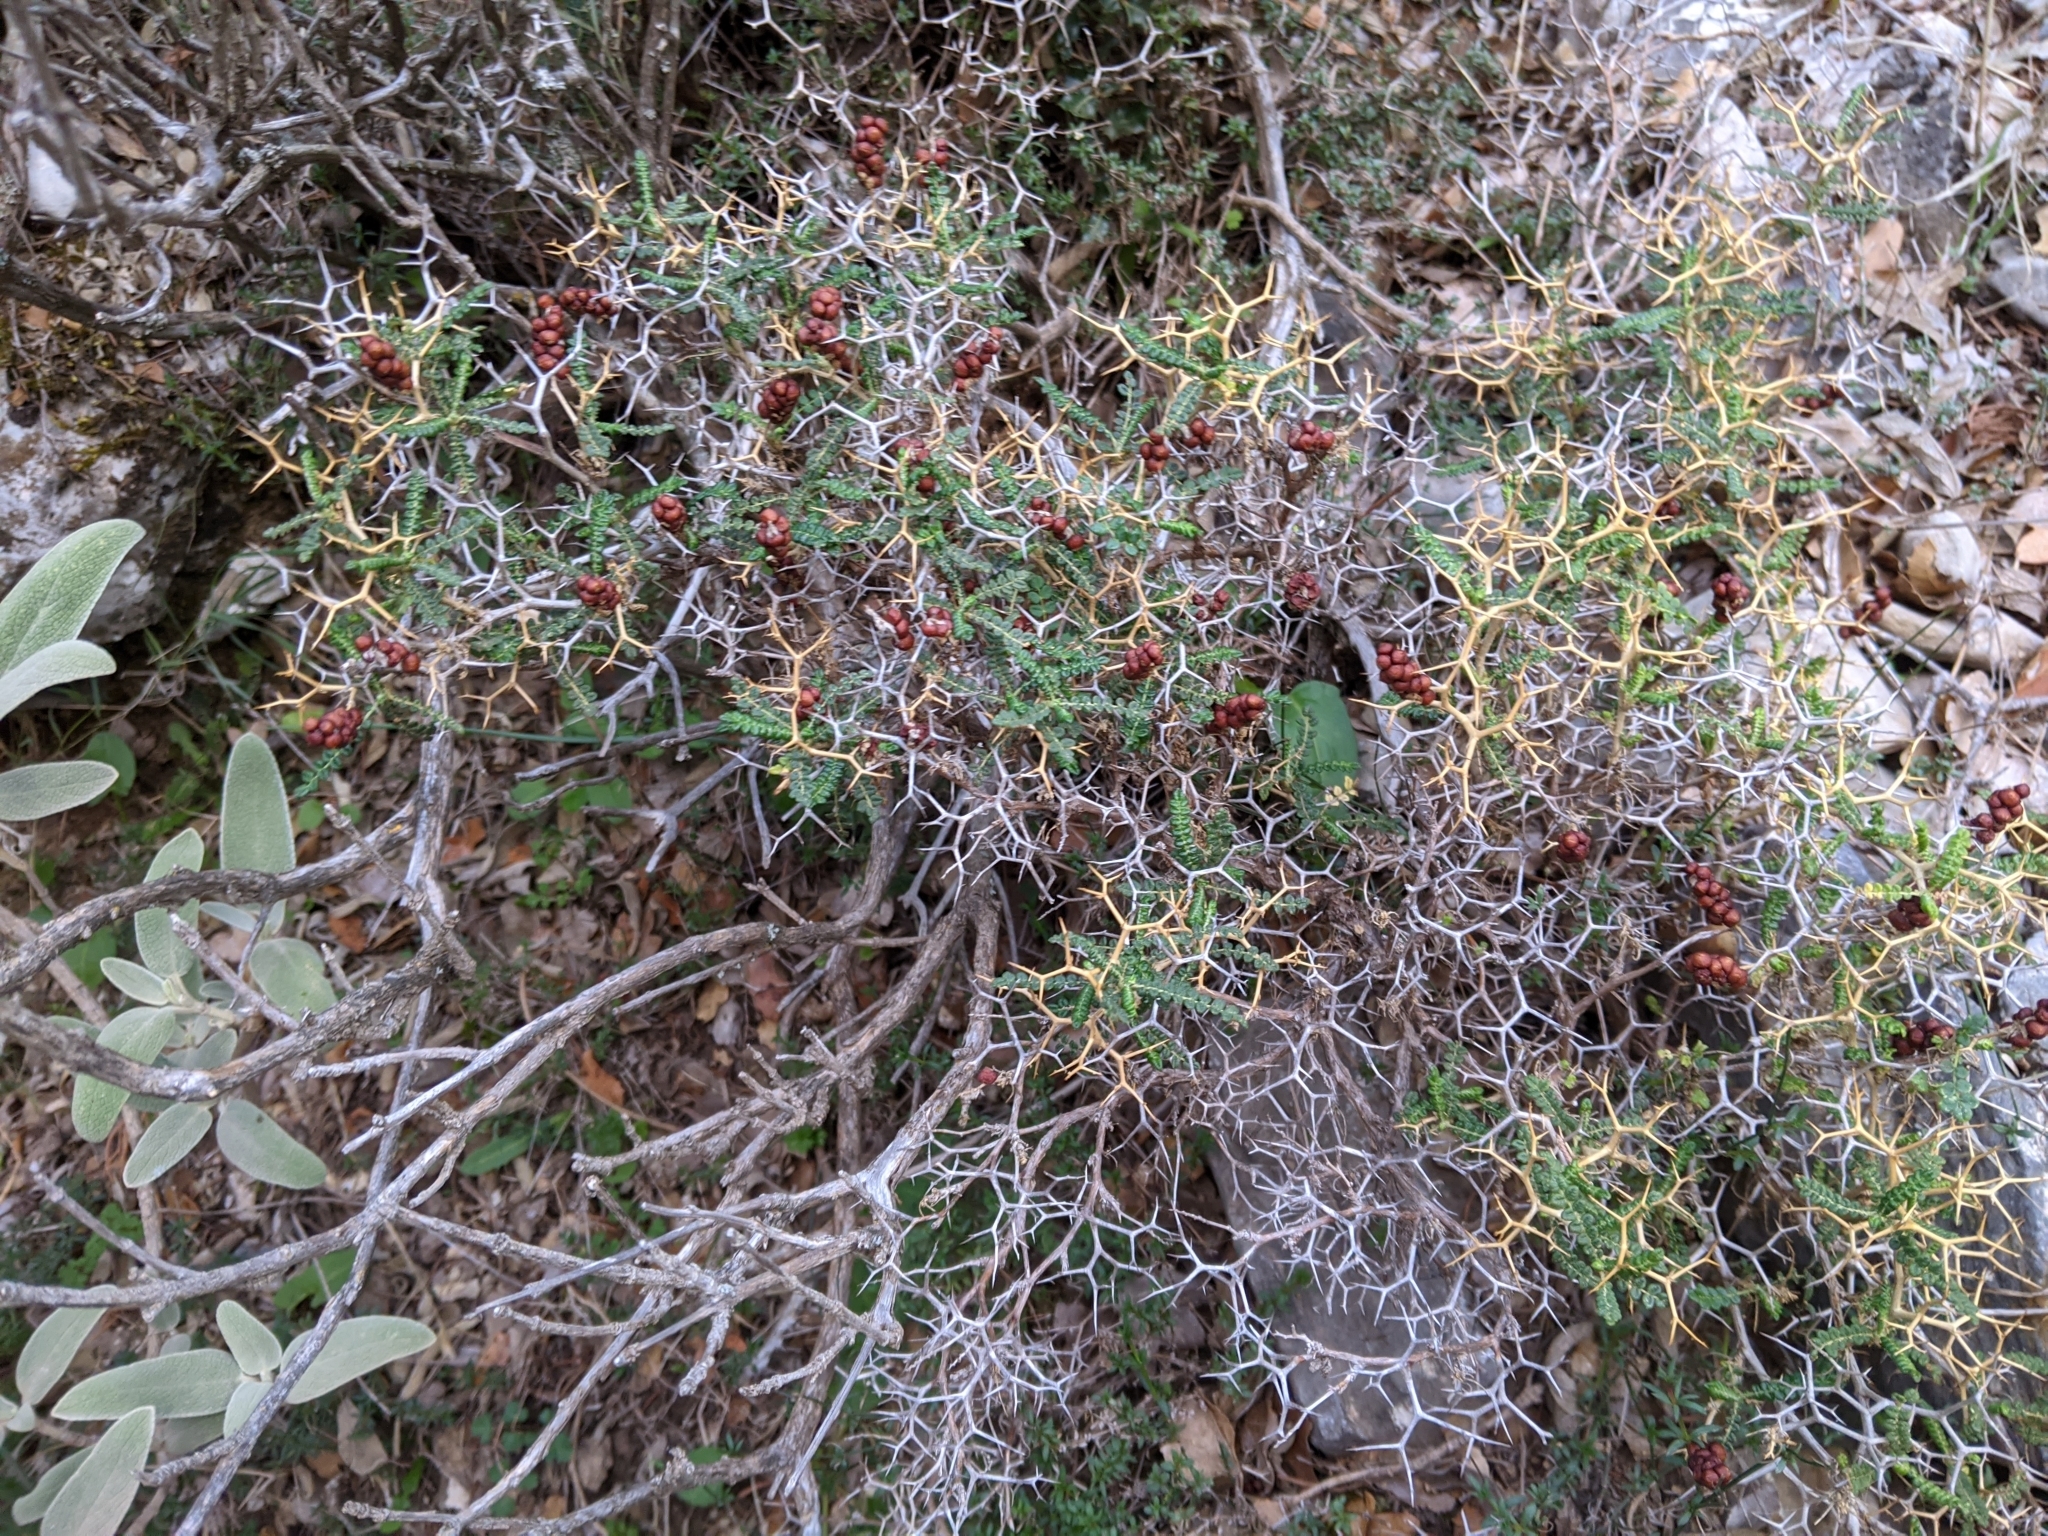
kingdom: Plantae
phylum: Tracheophyta
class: Magnoliopsida
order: Rosales
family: Rosaceae
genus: Sarcopoterium
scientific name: Sarcopoterium spinosum
